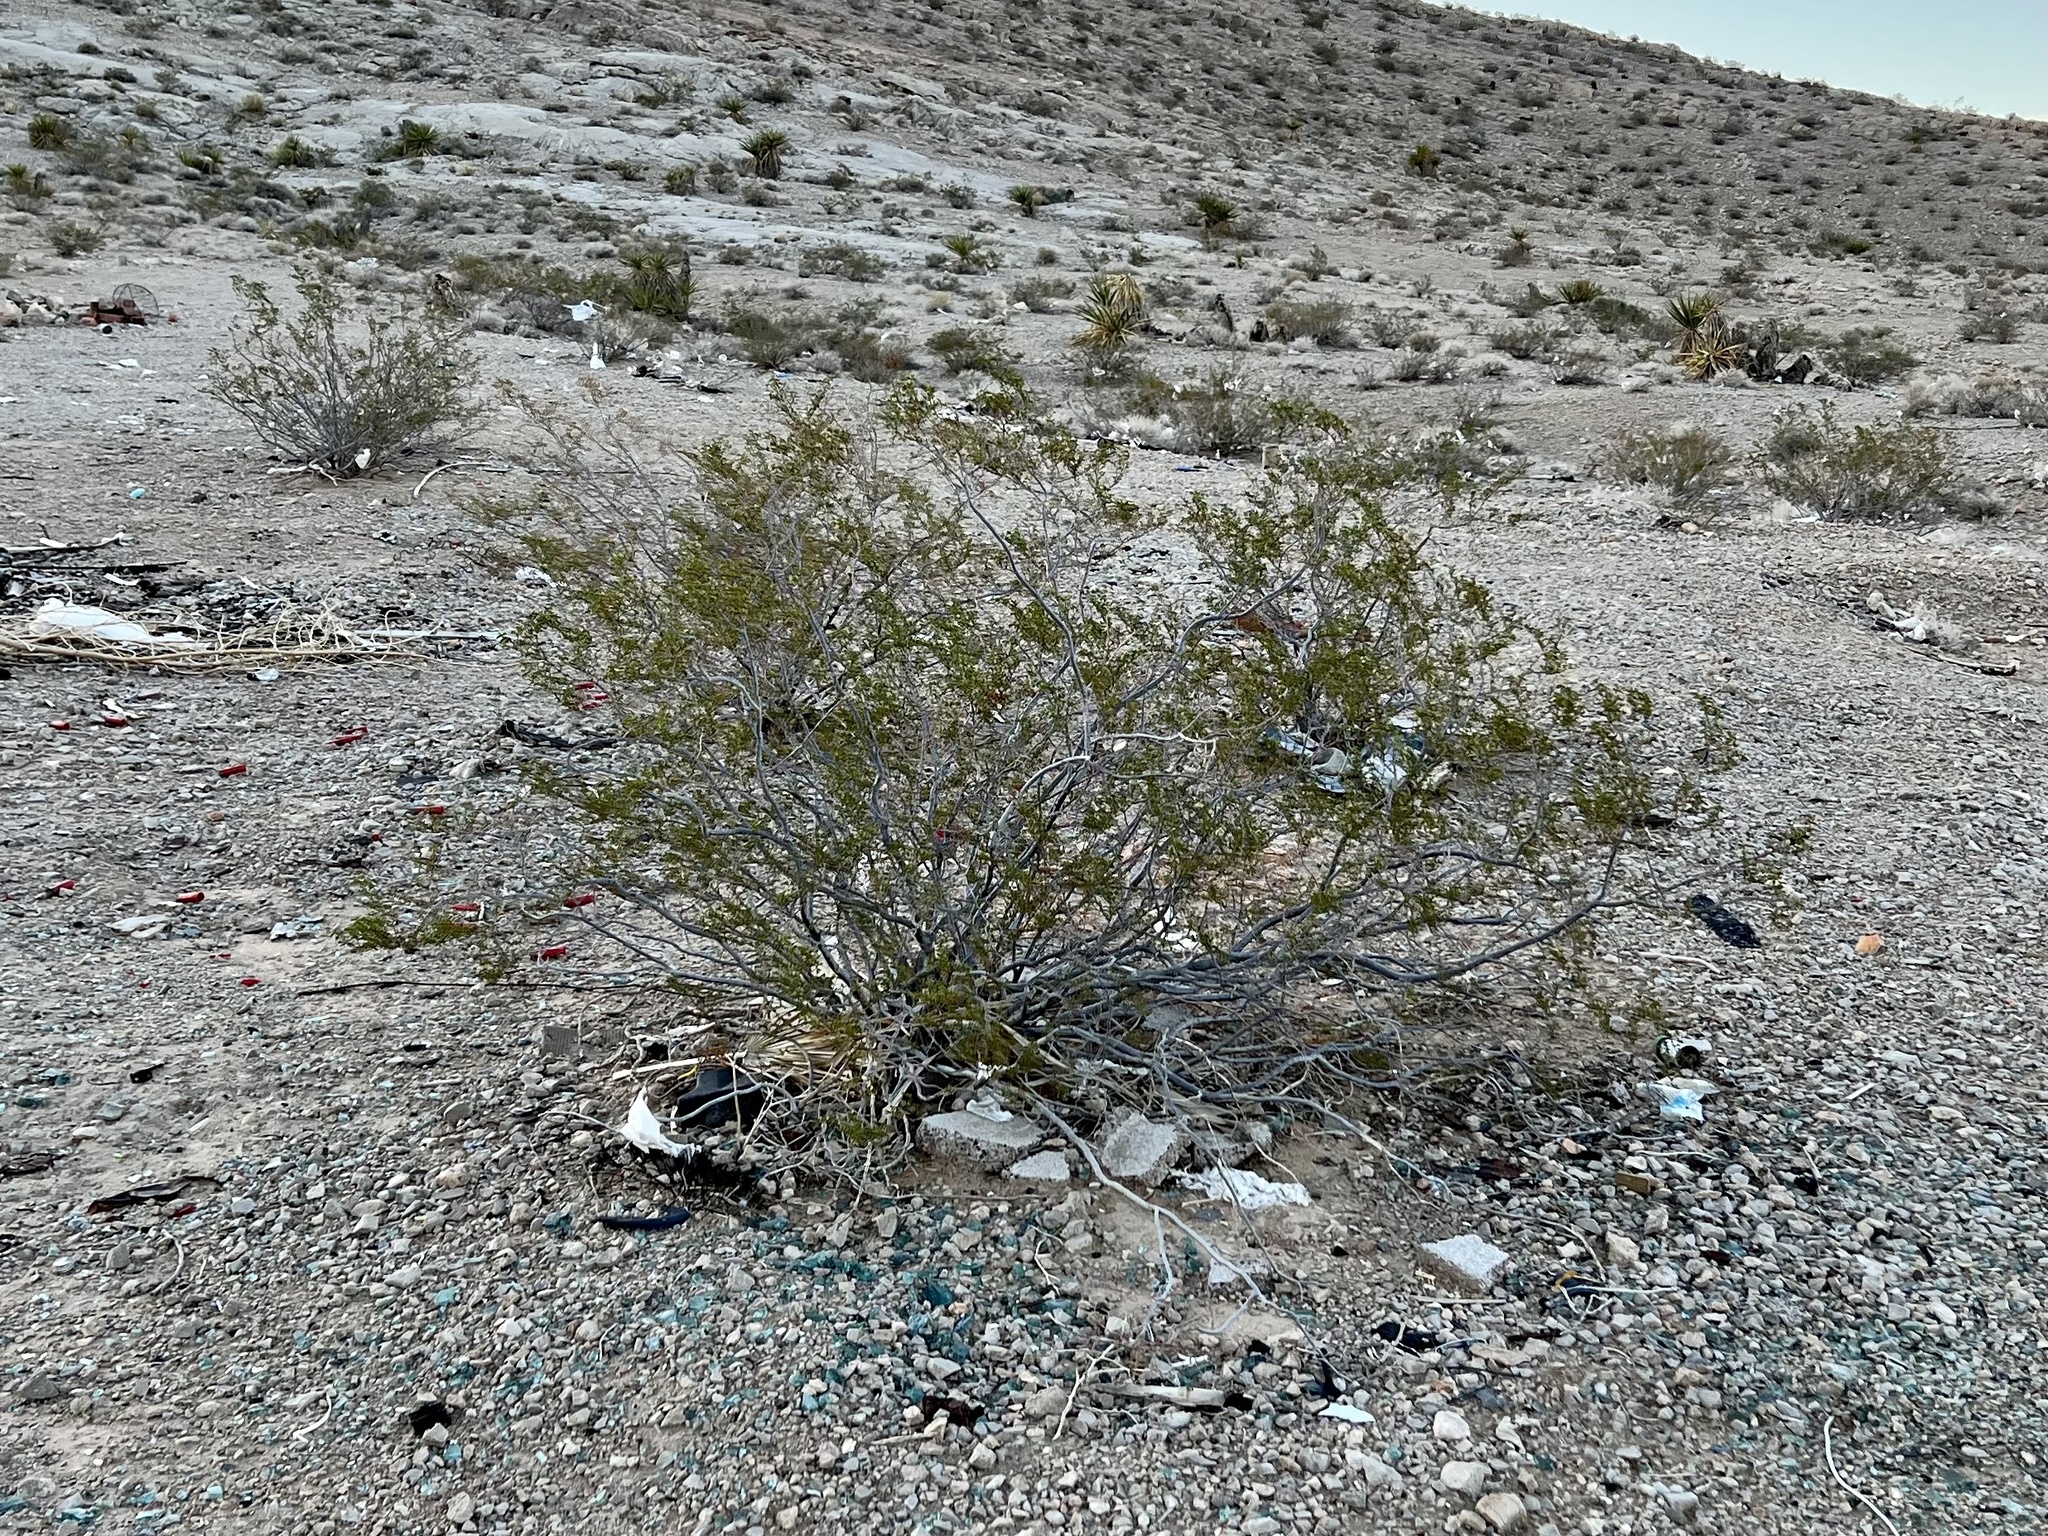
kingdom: Plantae
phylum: Tracheophyta
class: Magnoliopsida
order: Zygophyllales
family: Zygophyllaceae
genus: Larrea
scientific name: Larrea tridentata
